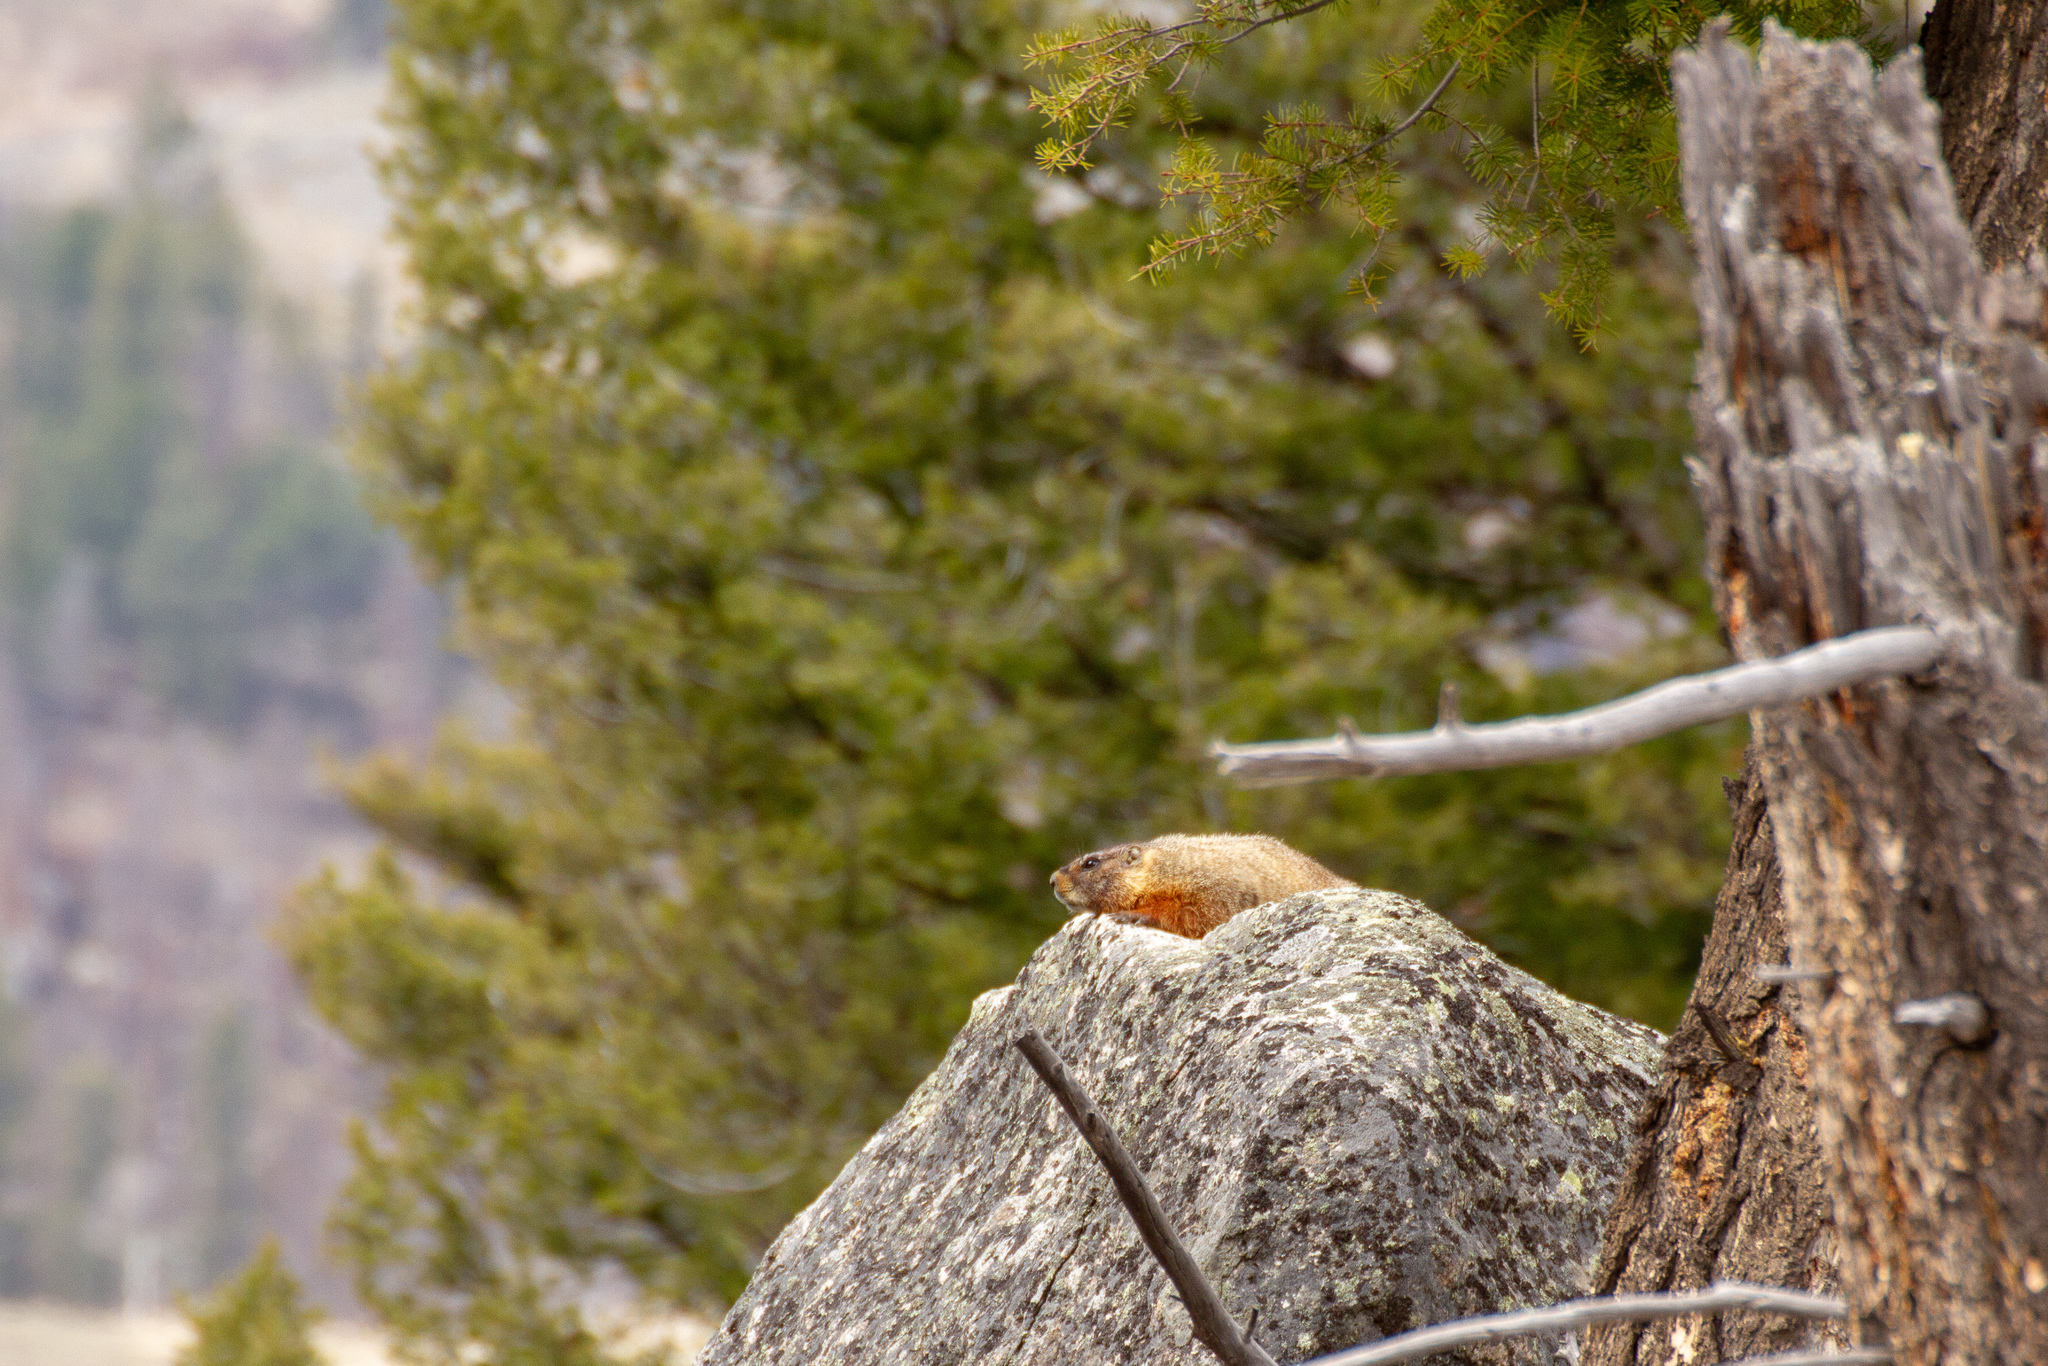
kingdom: Animalia
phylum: Chordata
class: Mammalia
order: Rodentia
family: Sciuridae
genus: Marmota
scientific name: Marmota flaviventris
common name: Yellow-bellied marmot
